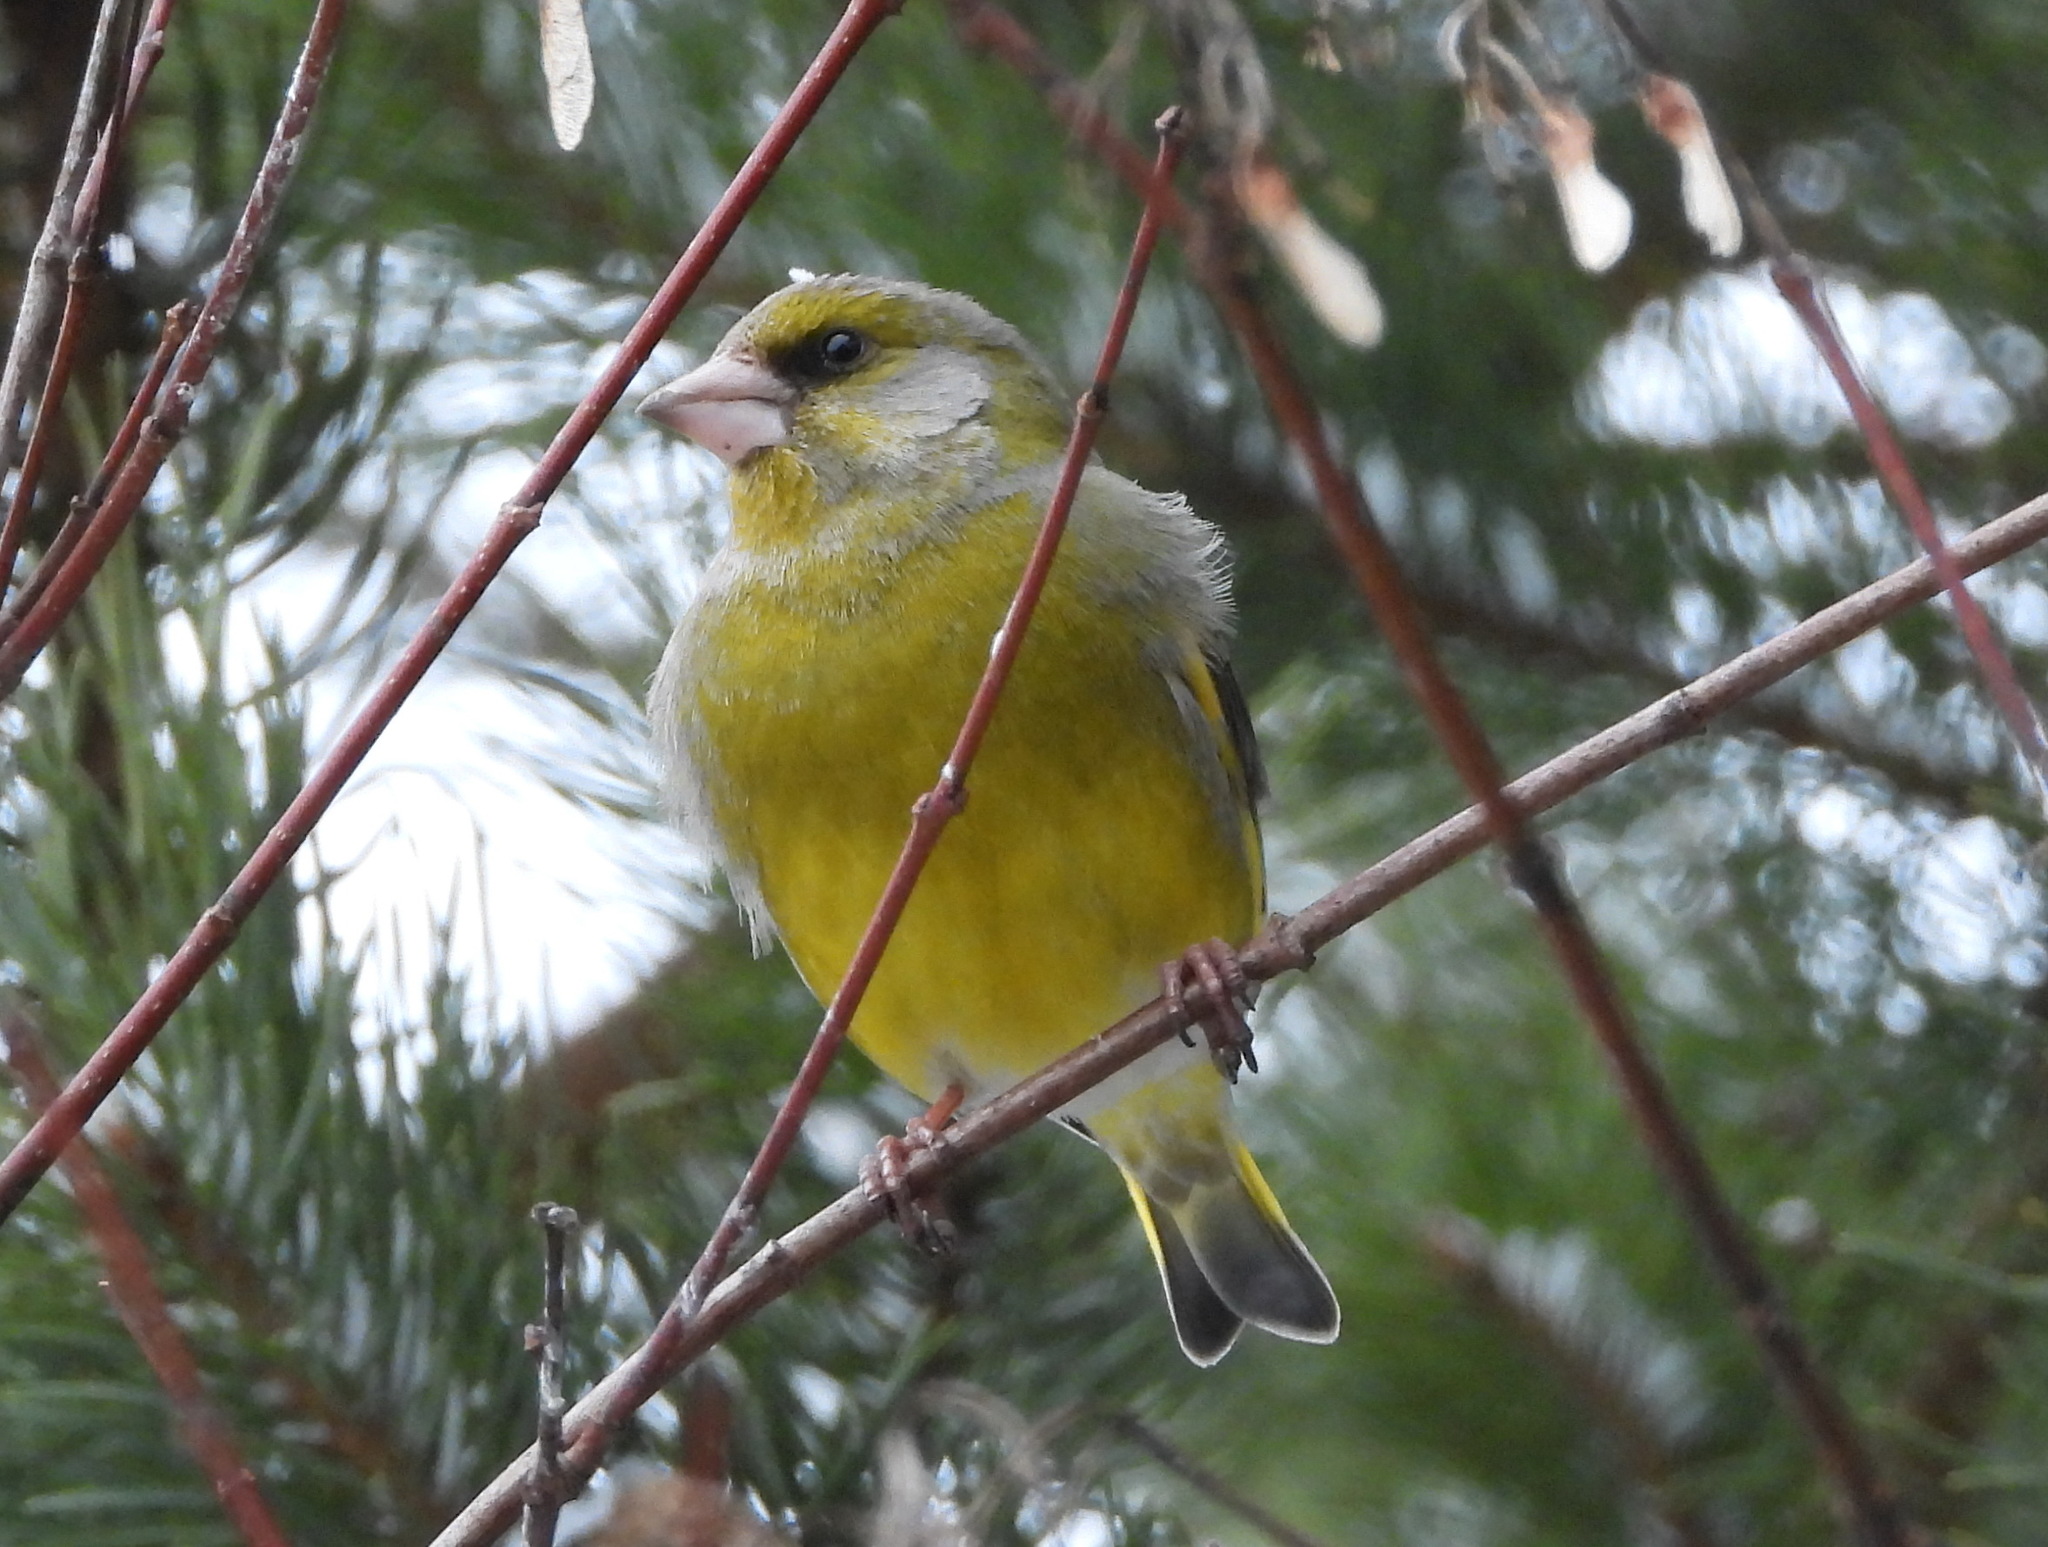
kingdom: Plantae
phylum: Tracheophyta
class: Liliopsida
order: Poales
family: Poaceae
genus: Chloris
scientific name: Chloris chloris
